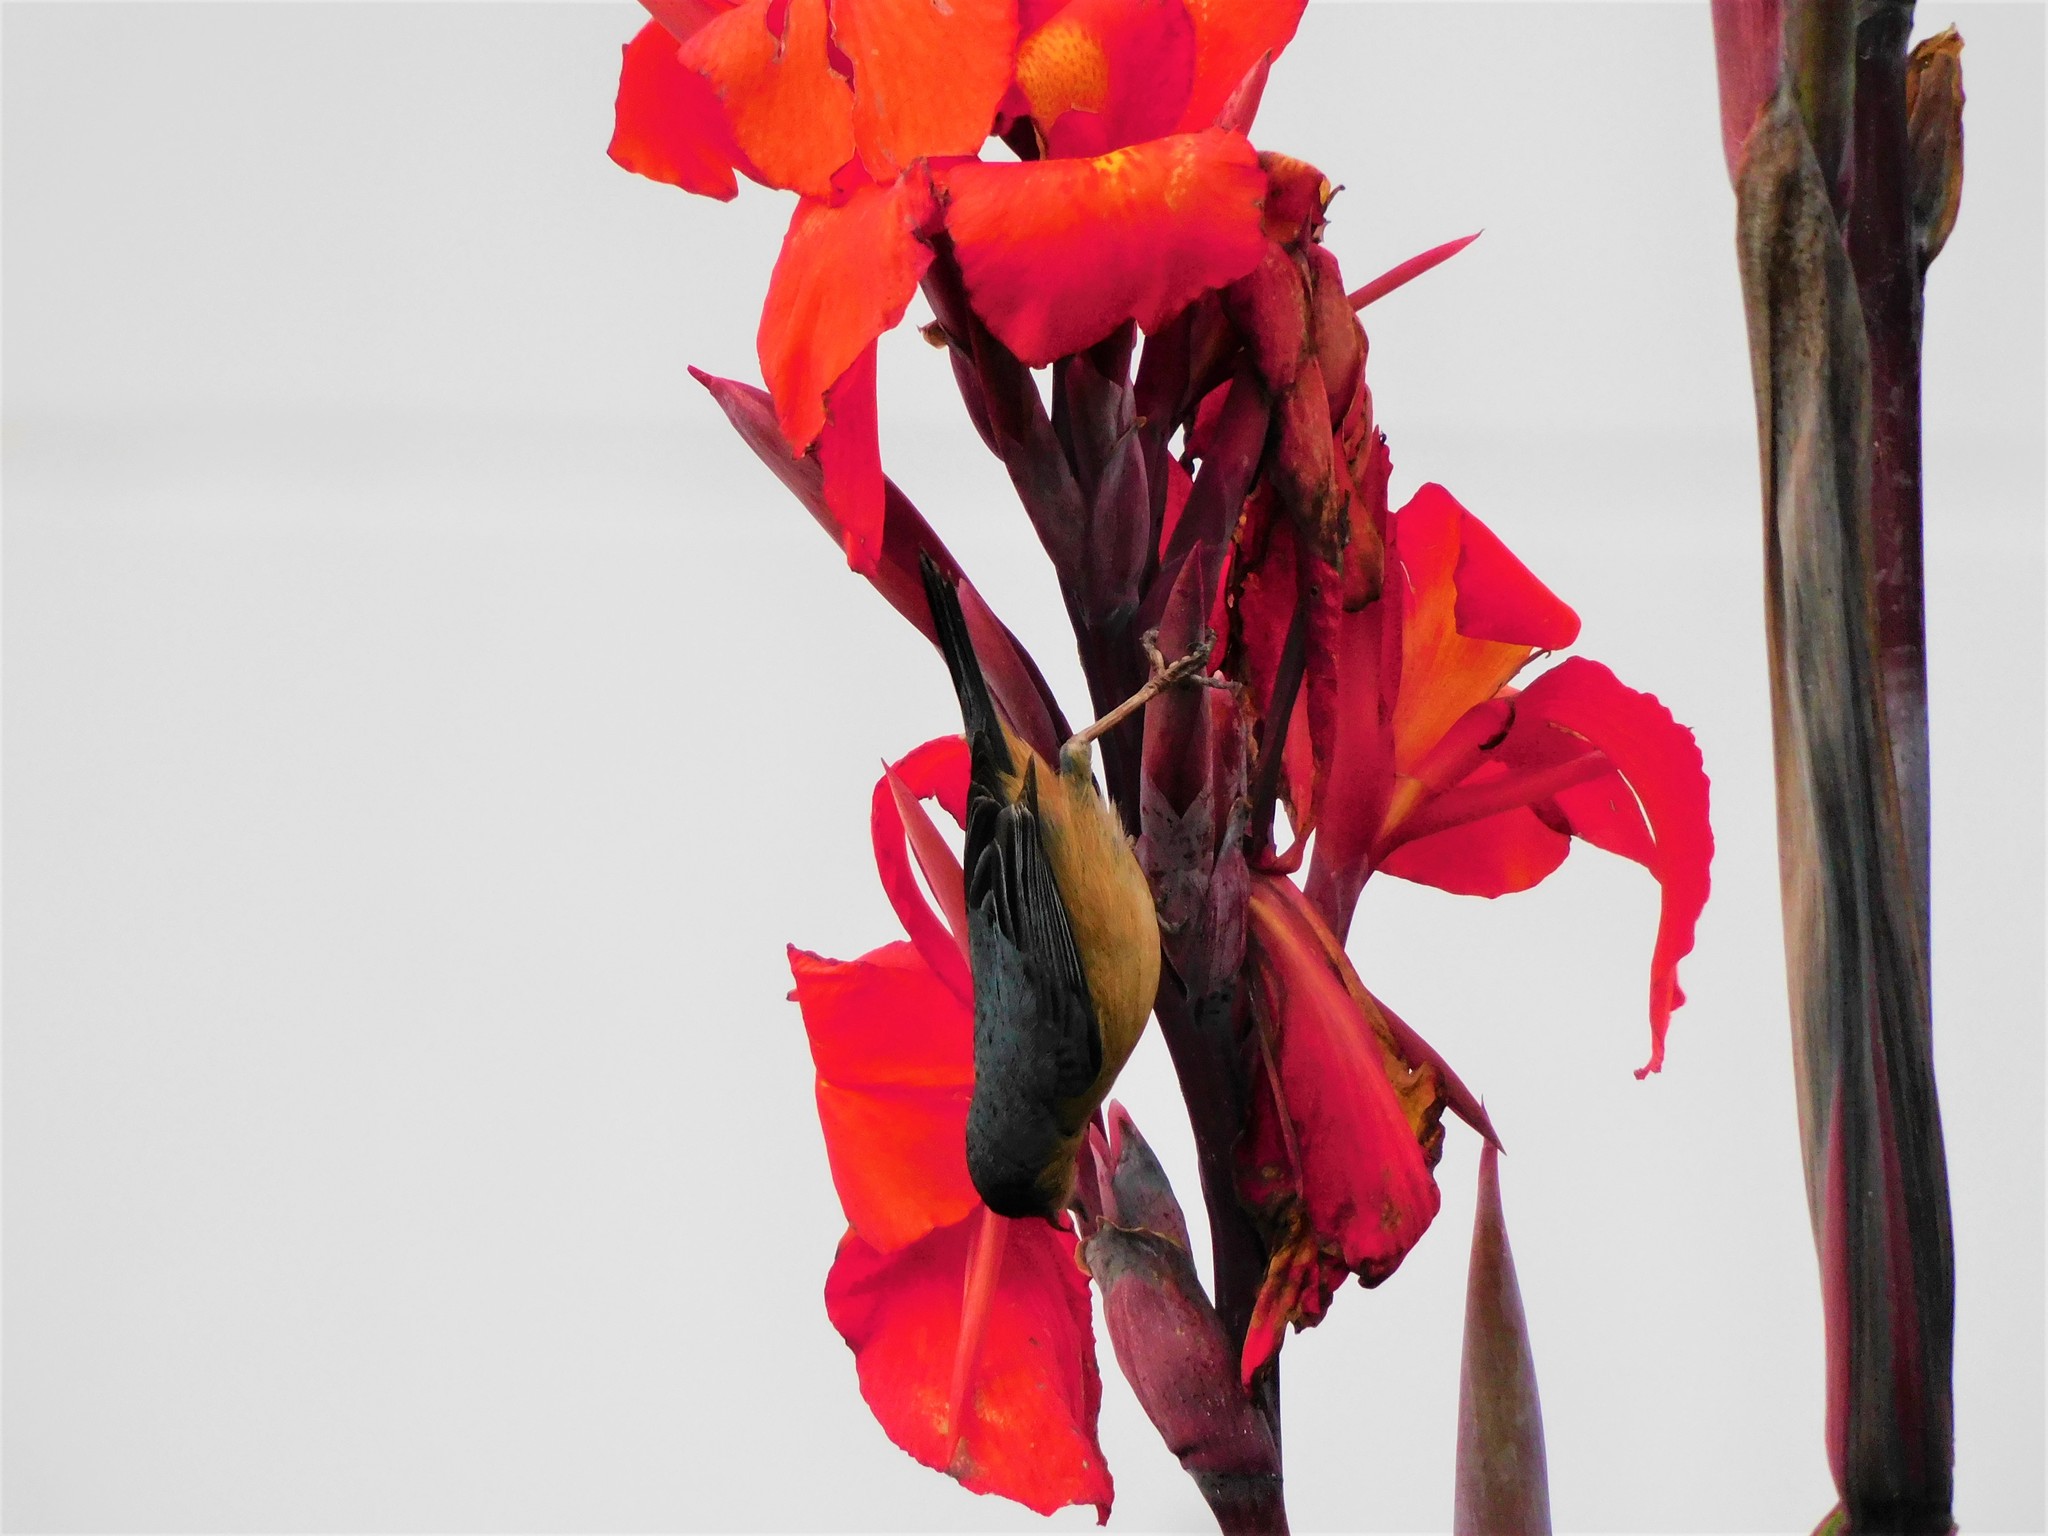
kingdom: Animalia
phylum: Chordata
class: Aves
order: Passeriformes
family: Thraupidae
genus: Diglossa
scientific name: Diglossa sittoides
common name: Rusty flowerpiercer
